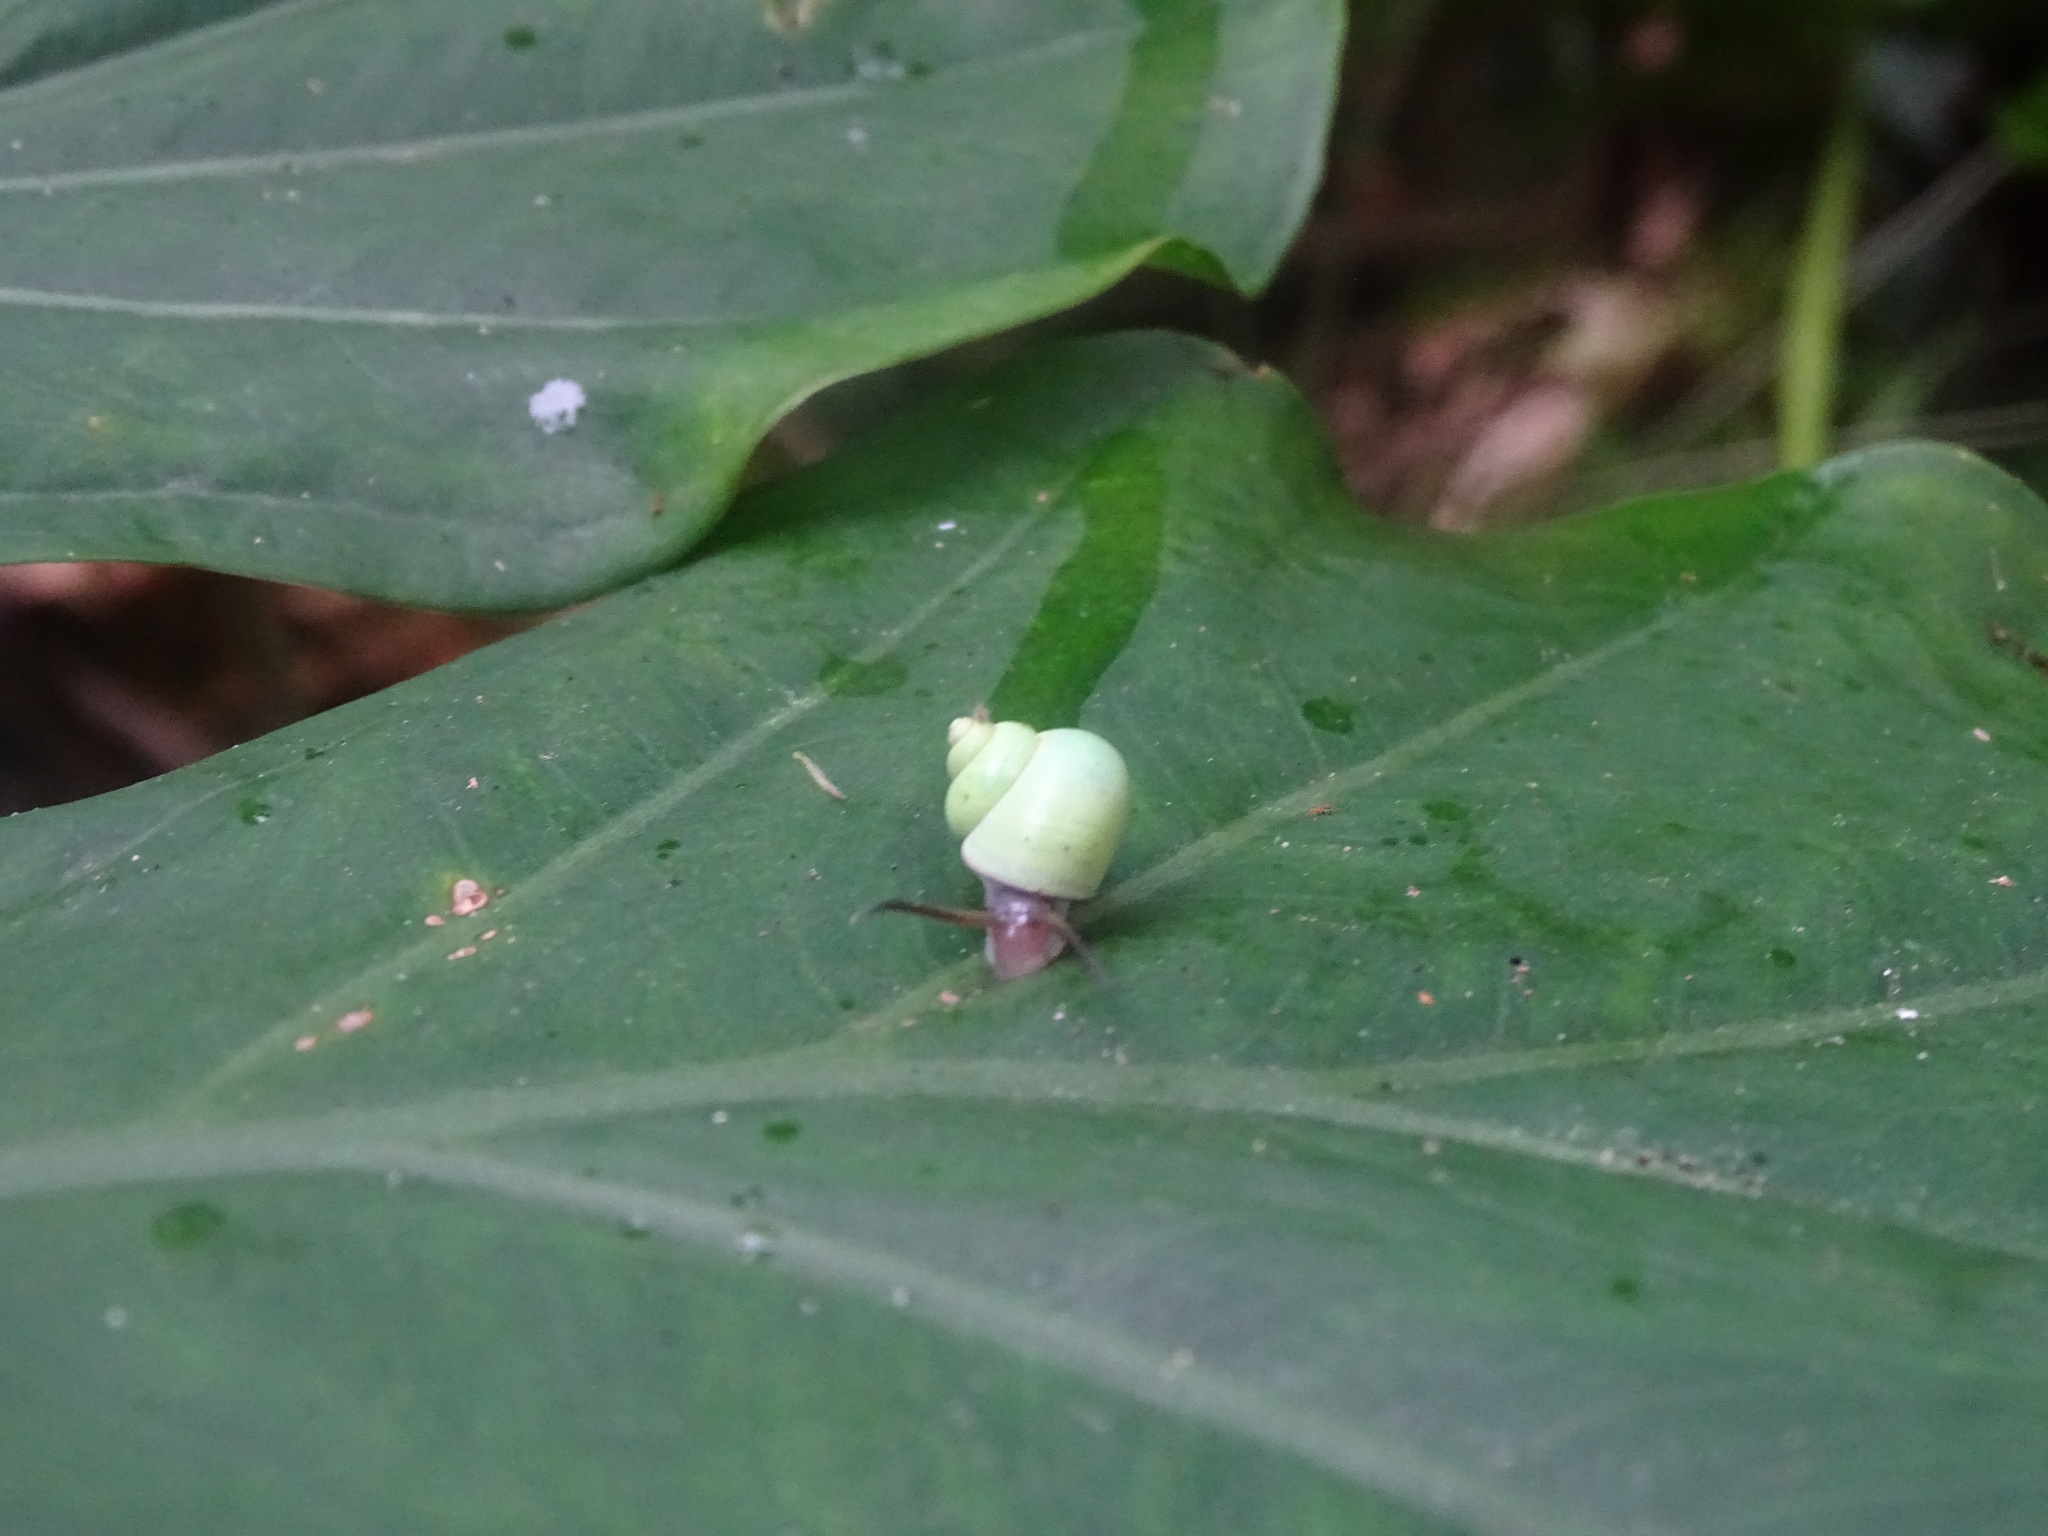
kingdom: Animalia
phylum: Mollusca
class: Gastropoda
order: Architaenioglossa
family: Cyclophoridae
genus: Leptopoma
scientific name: Leptopoma nitidum
